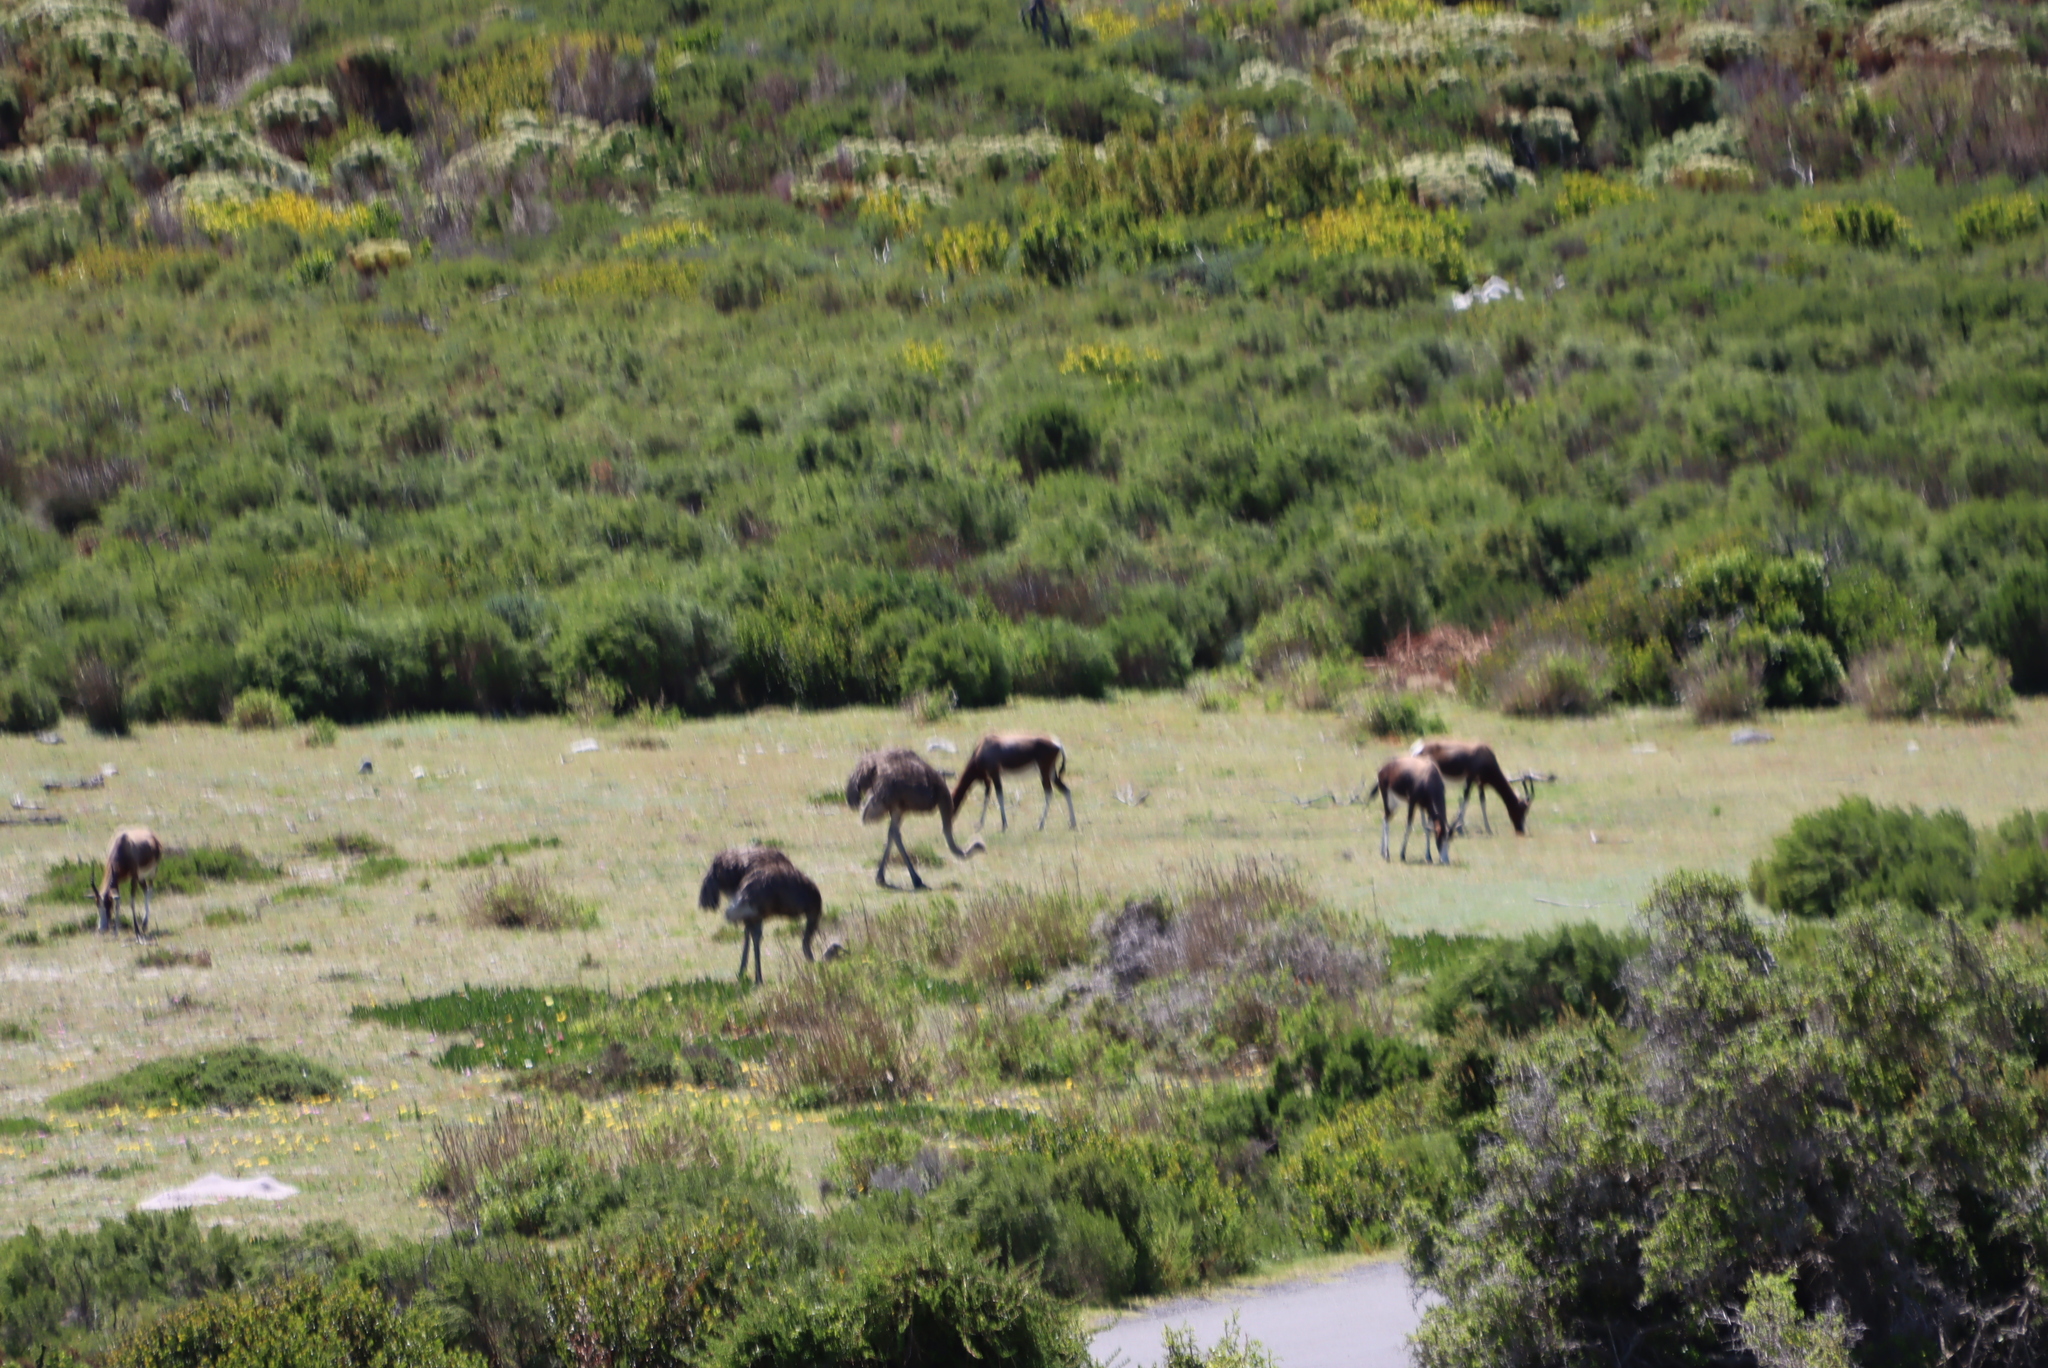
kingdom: Animalia
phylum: Chordata
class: Aves
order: Struthioniformes
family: Struthionidae
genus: Struthio
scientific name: Struthio camelus
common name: Common ostrich
